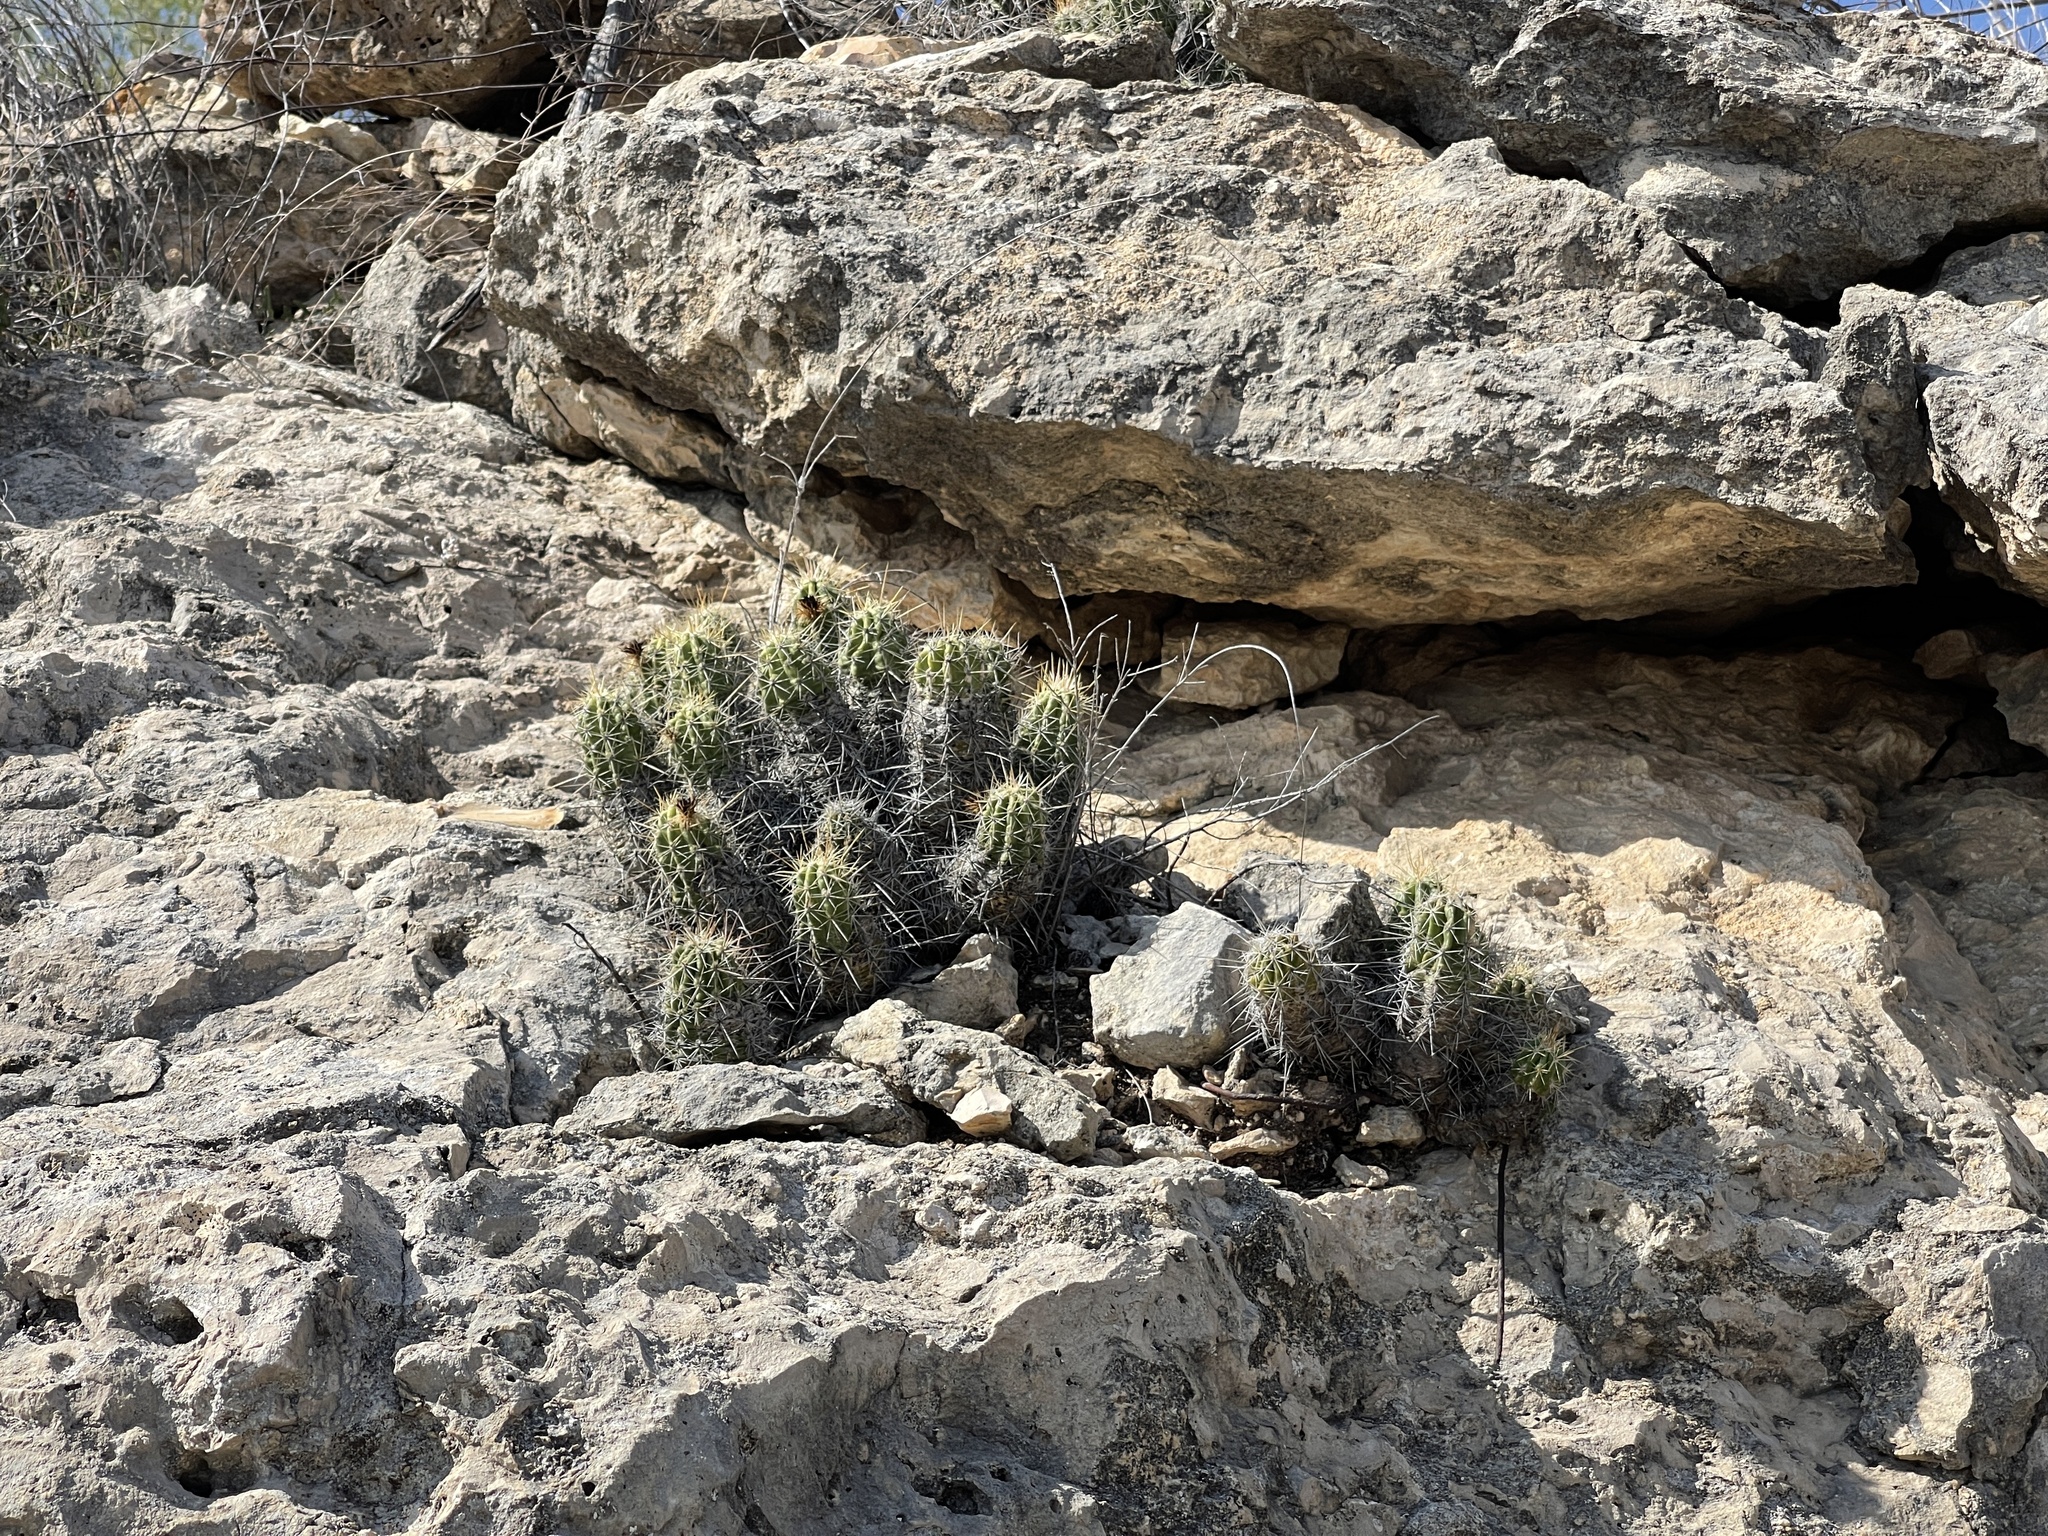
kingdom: Plantae
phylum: Tracheophyta
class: Magnoliopsida
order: Caryophyllales
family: Cactaceae
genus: Echinocereus
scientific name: Echinocereus enneacanthus
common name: Pitaya
